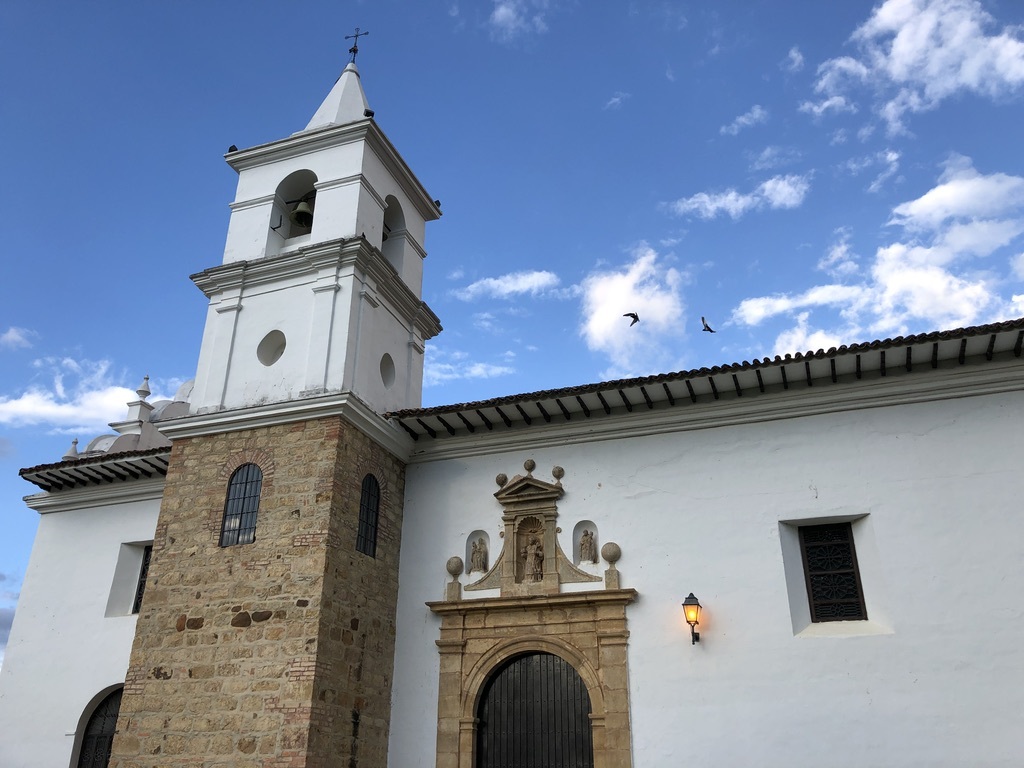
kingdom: Animalia
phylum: Chordata
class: Aves
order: Columbiformes
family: Columbidae
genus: Columba
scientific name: Columba livia
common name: Rock pigeon
